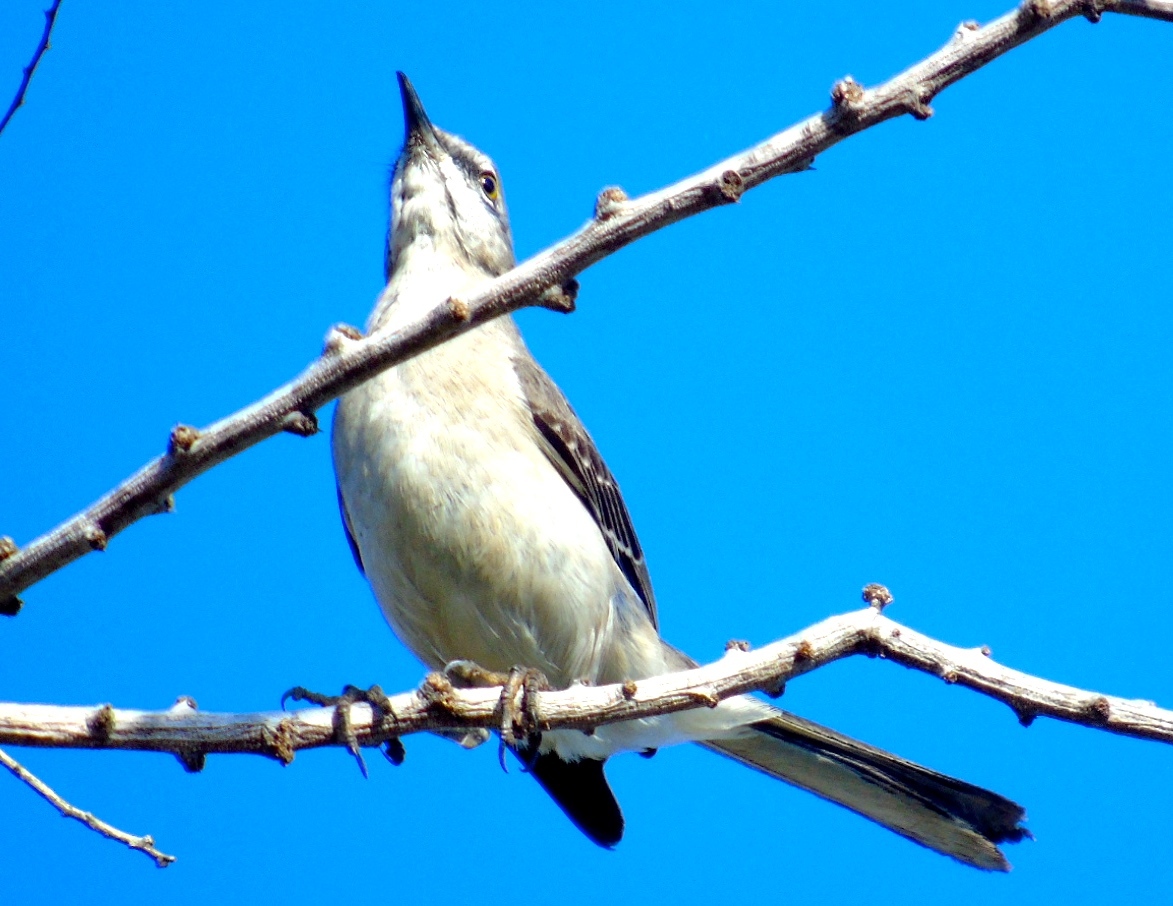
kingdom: Animalia
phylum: Chordata
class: Aves
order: Passeriformes
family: Mimidae
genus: Mimus
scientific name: Mimus polyglottos
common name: Northern mockingbird
